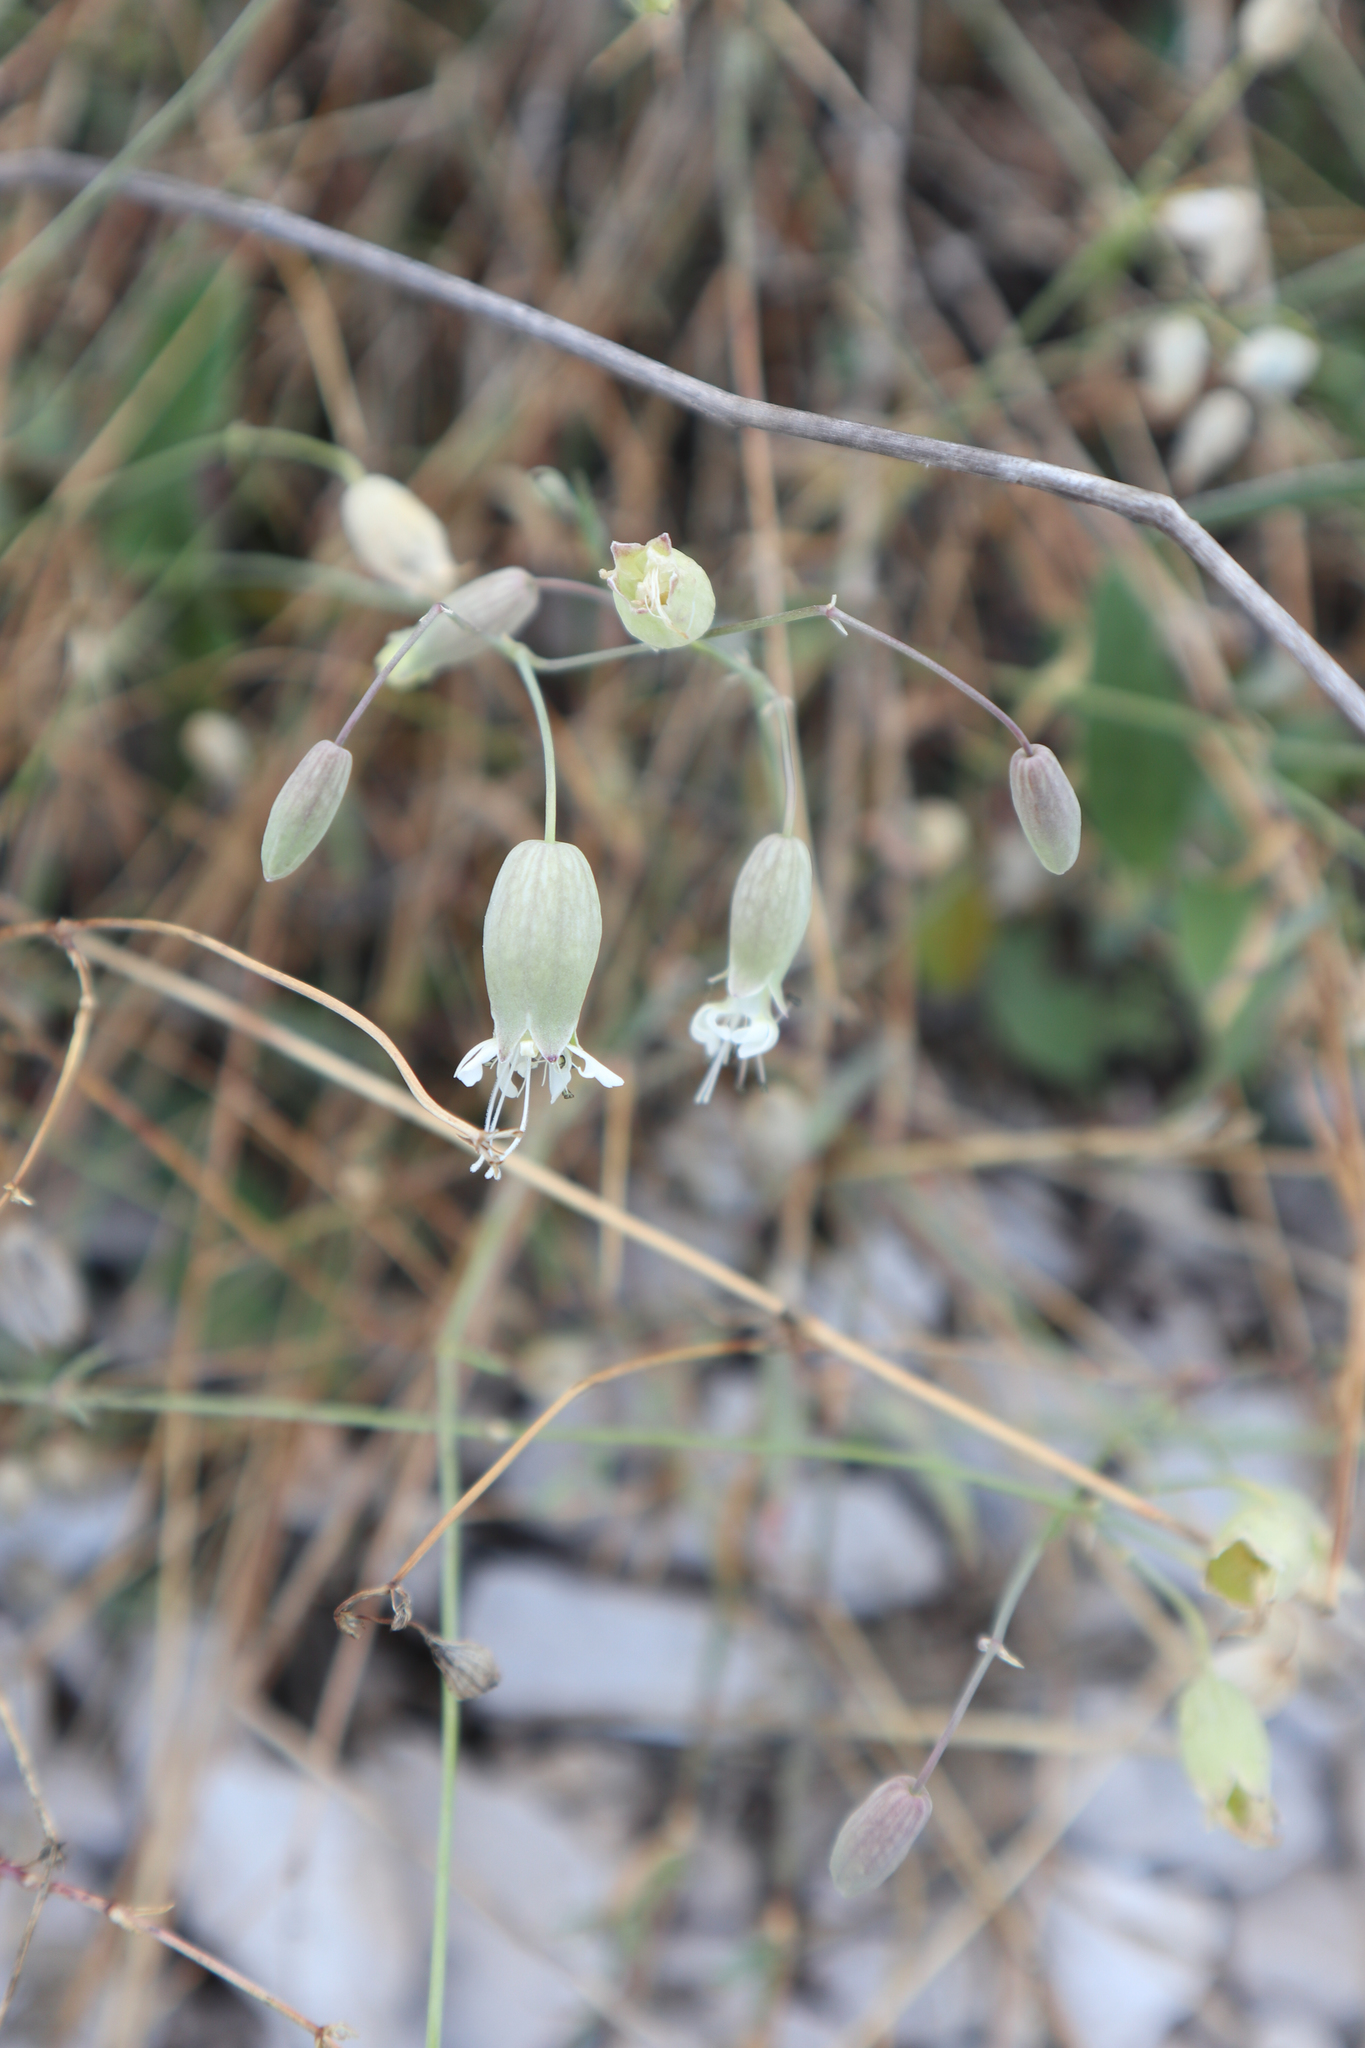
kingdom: Plantae
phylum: Tracheophyta
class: Magnoliopsida
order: Caryophyllales
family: Caryophyllaceae
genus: Silene
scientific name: Silene vulgaris
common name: Bladder campion
